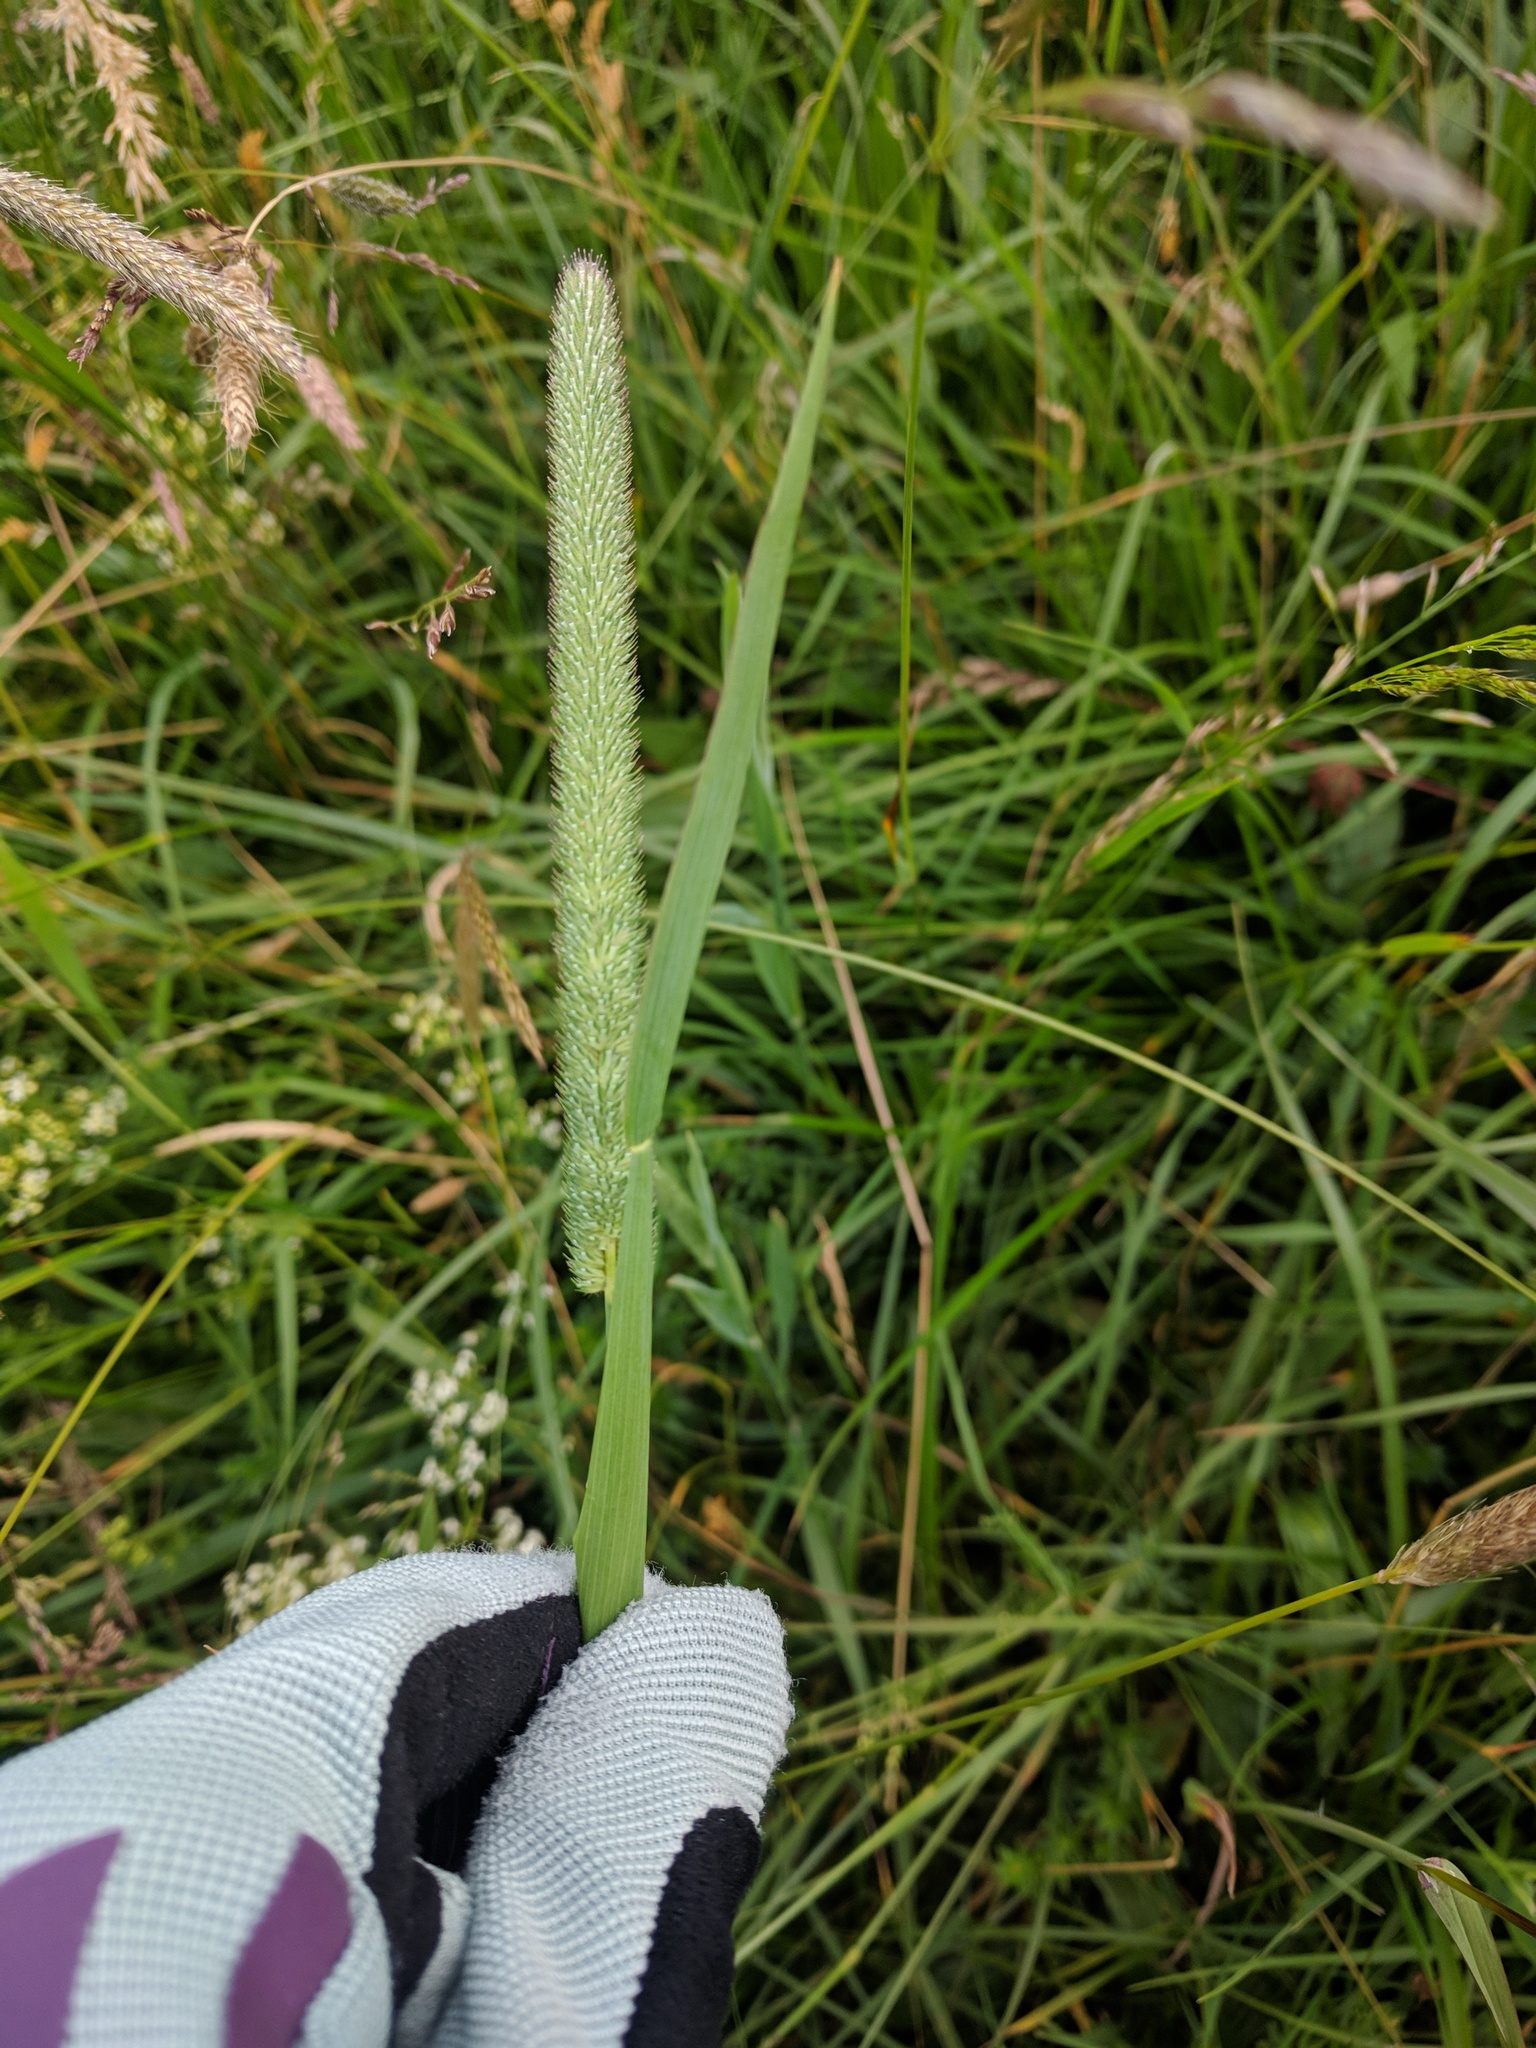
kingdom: Plantae
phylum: Tracheophyta
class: Liliopsida
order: Poales
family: Poaceae
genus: Phleum
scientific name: Phleum pratense
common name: Timothy grass
